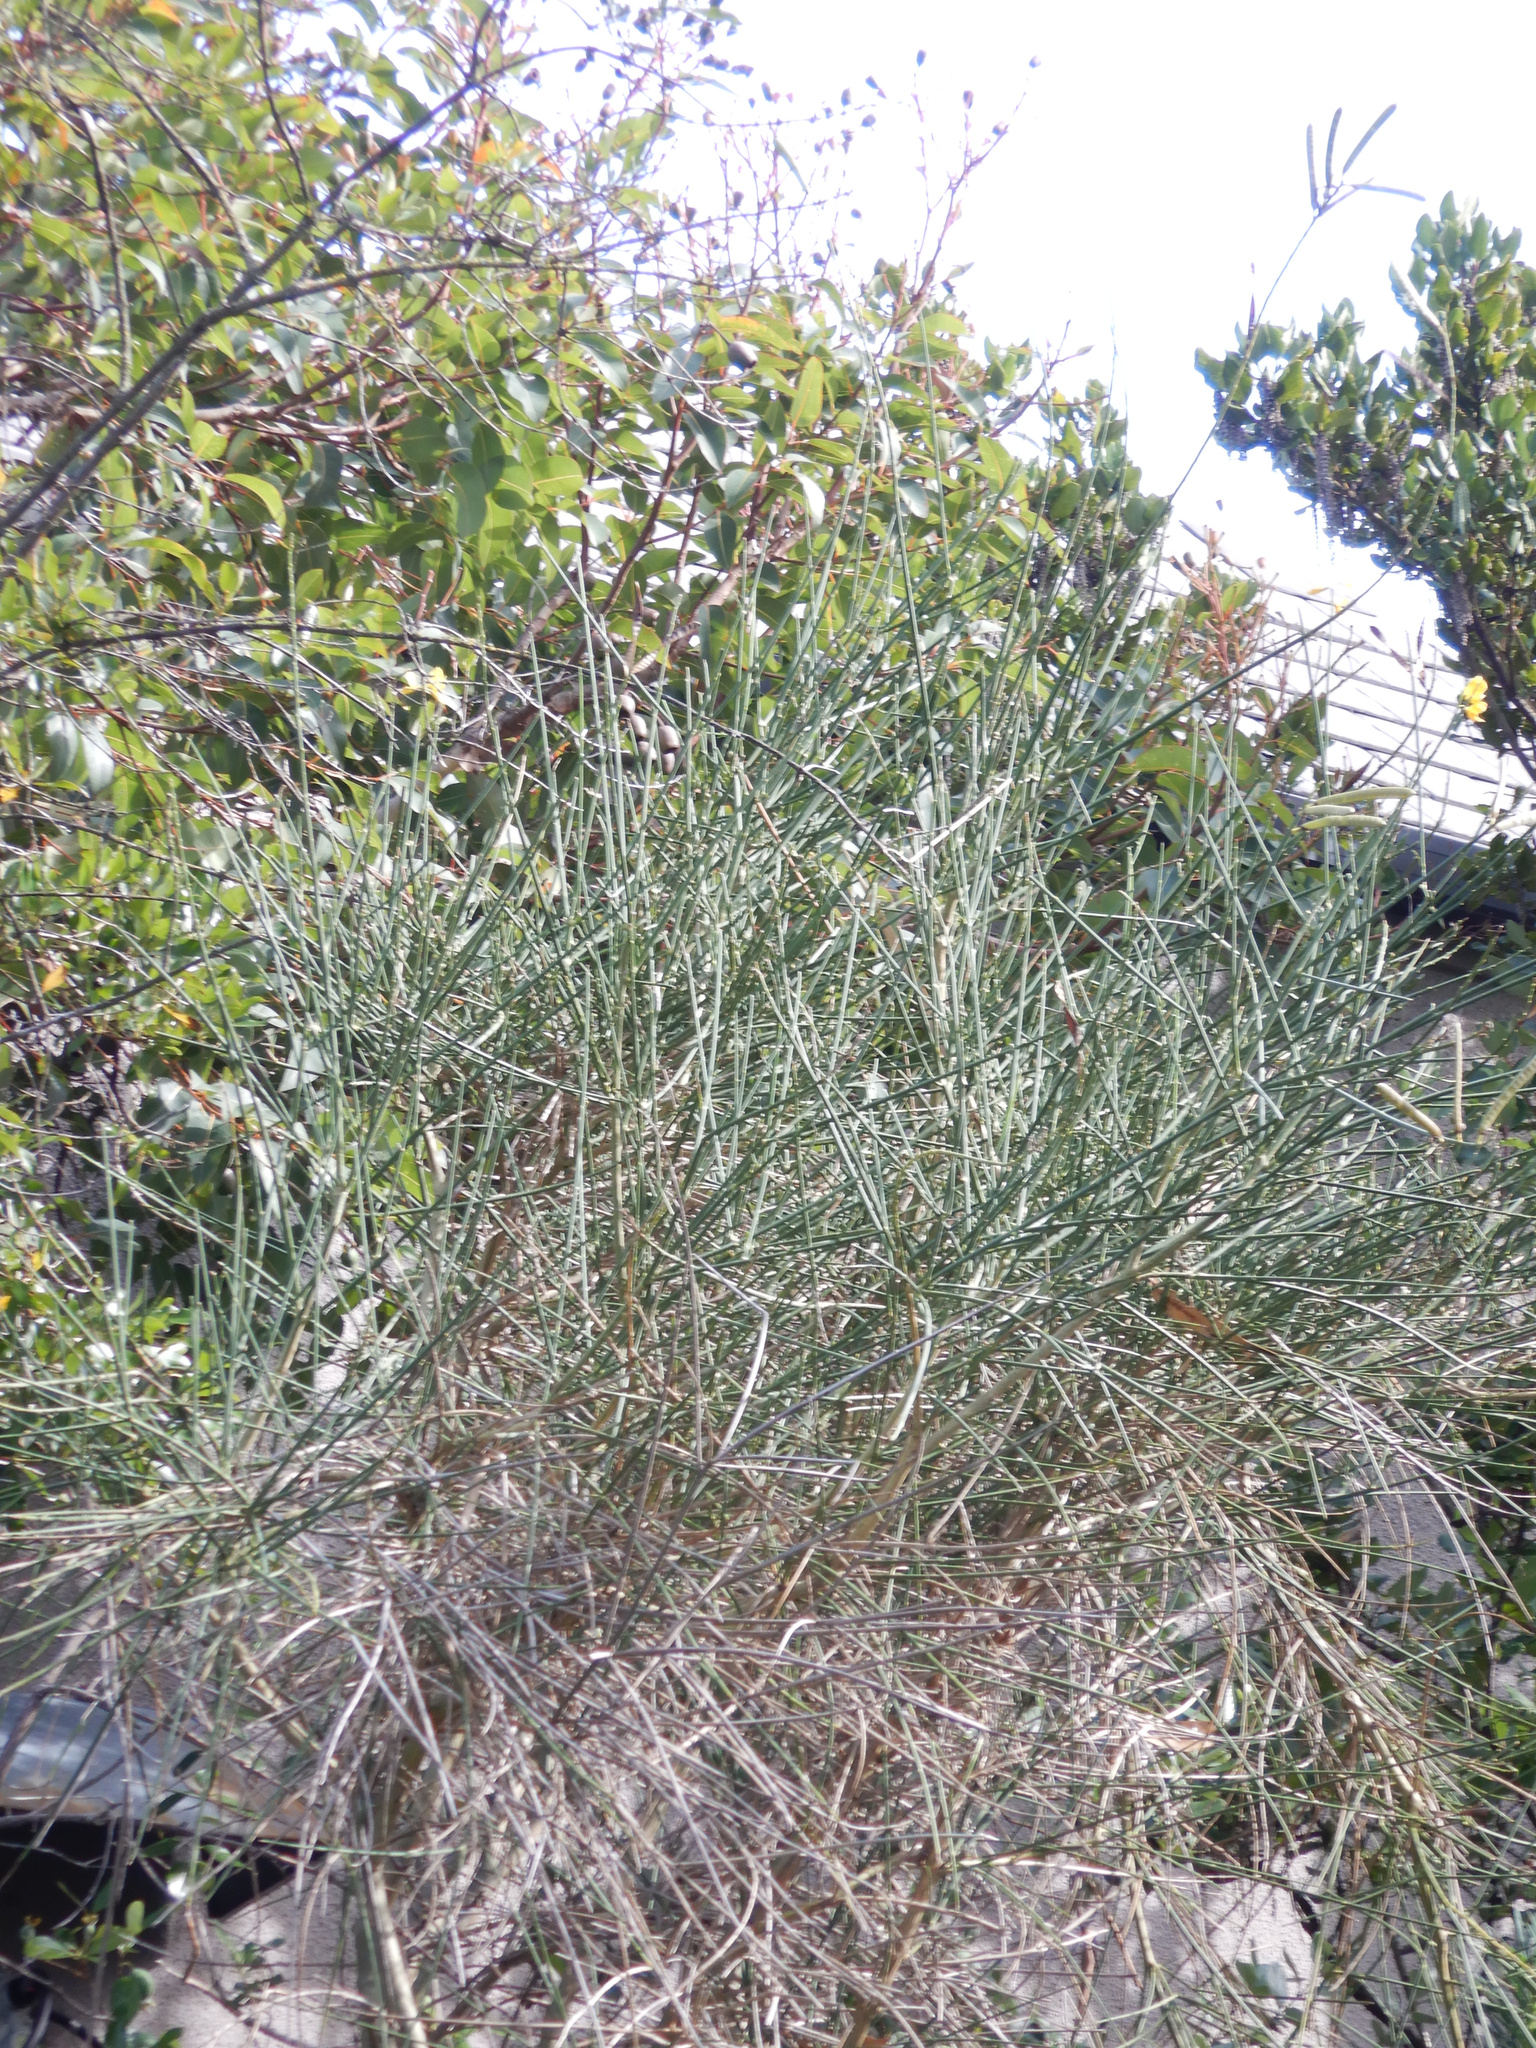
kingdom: Plantae
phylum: Tracheophyta
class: Magnoliopsida
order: Fabales
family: Fabaceae
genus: Spartium
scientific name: Spartium junceum
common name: Spanish broom
